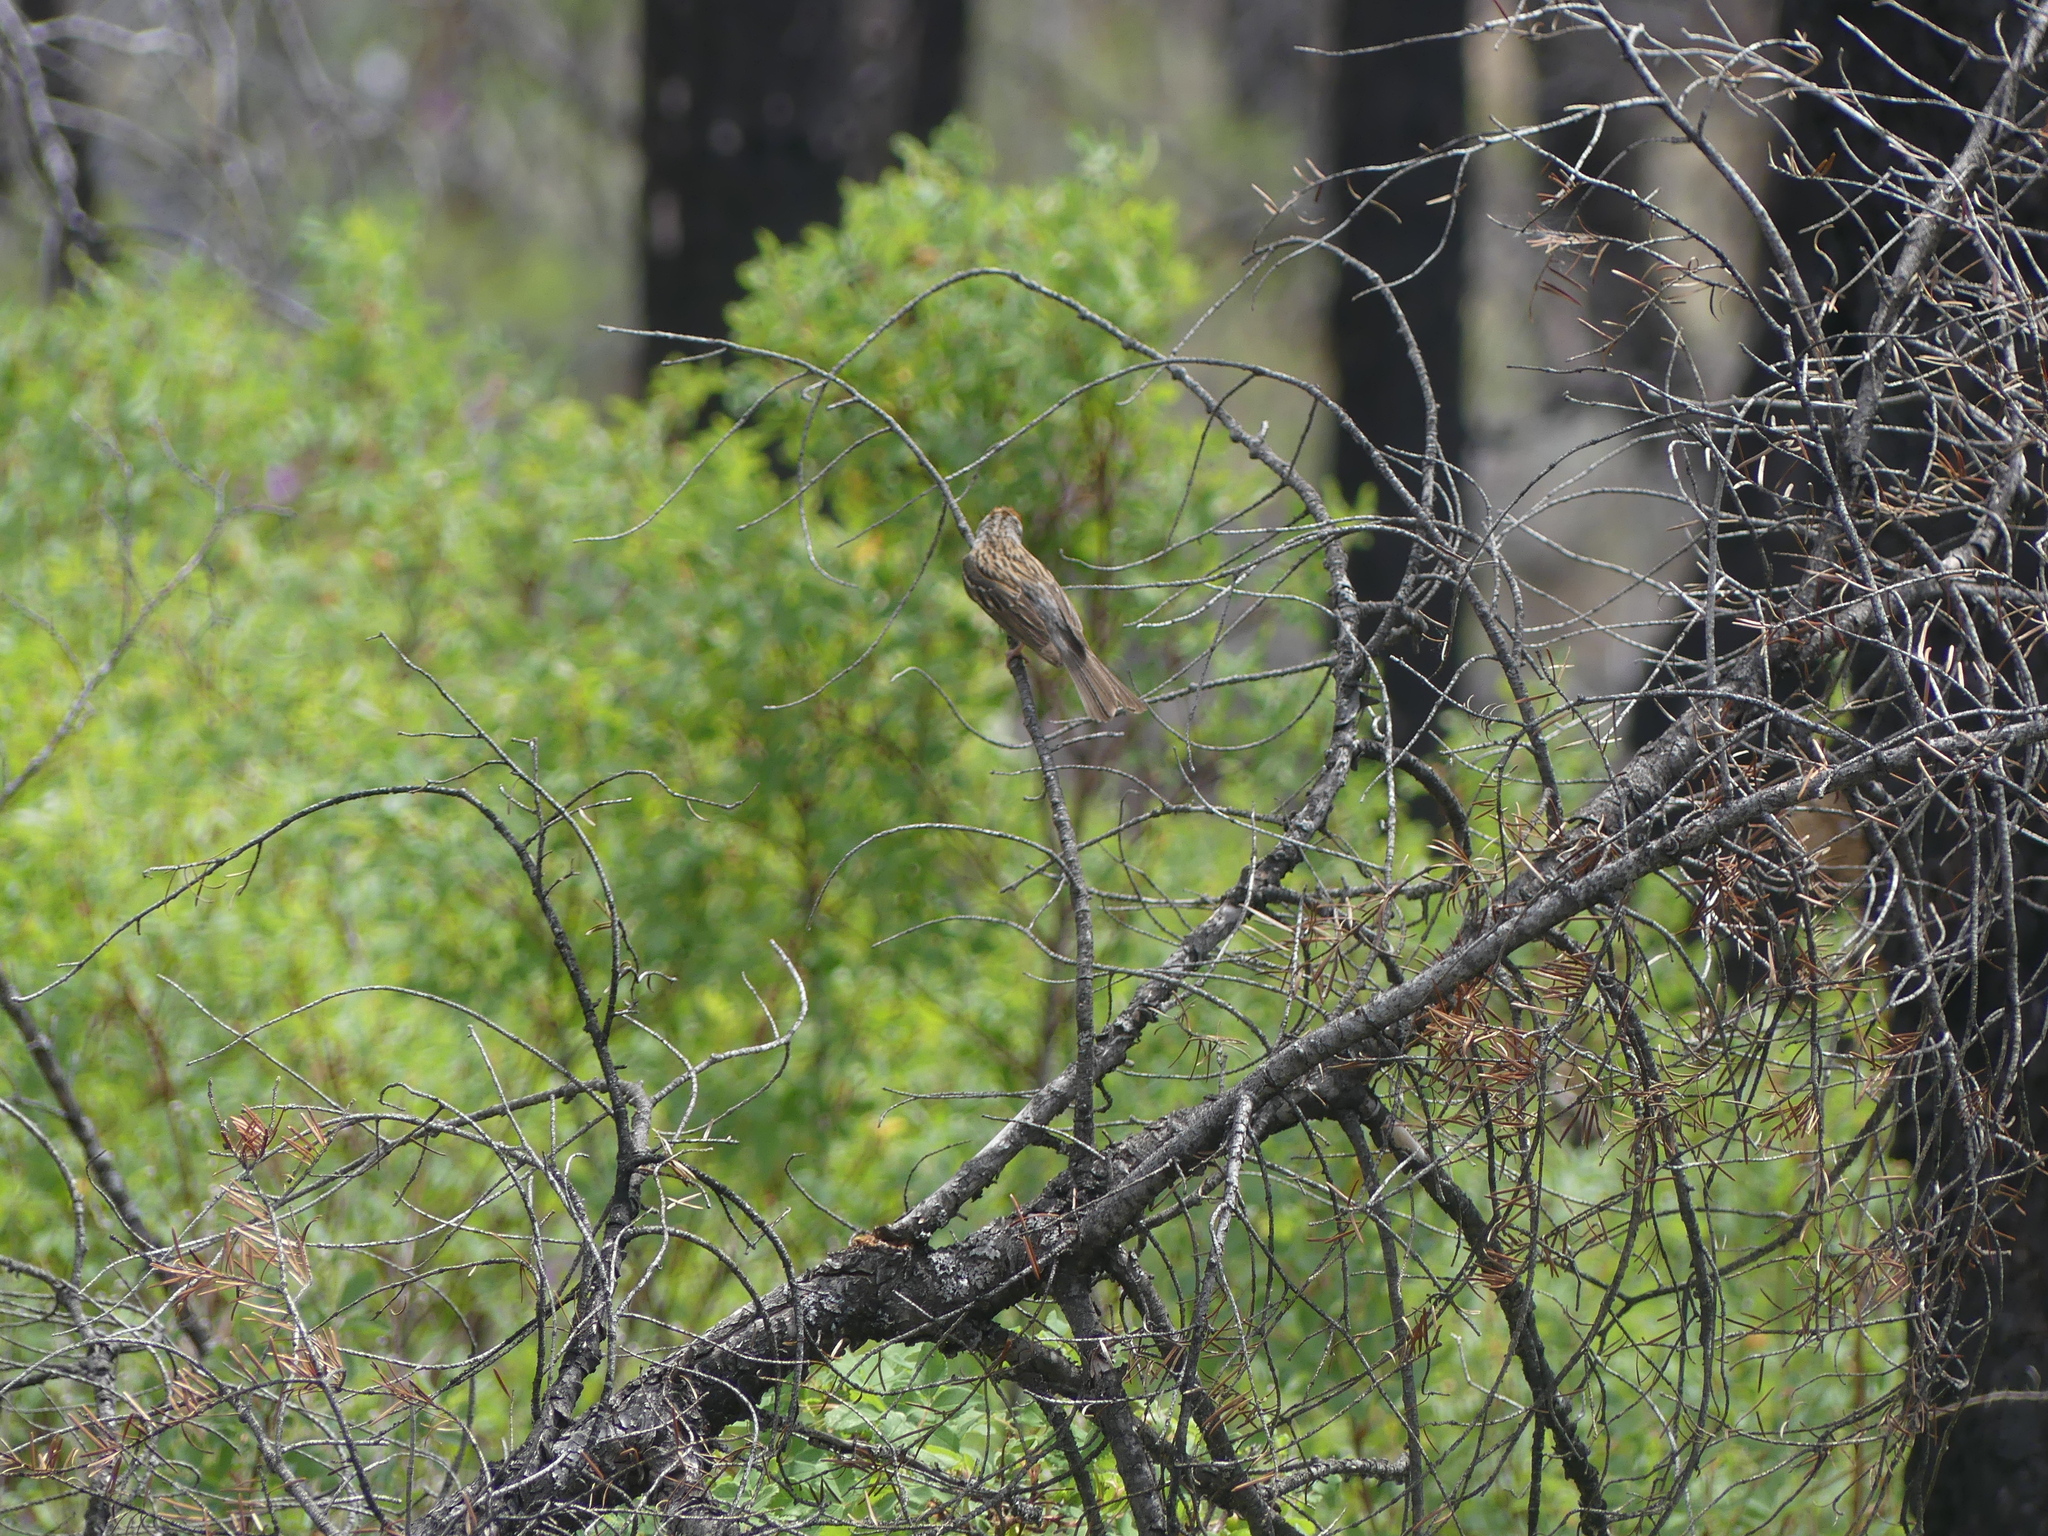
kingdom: Animalia
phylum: Chordata
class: Aves
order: Passeriformes
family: Passerellidae
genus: Spizella
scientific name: Spizella passerina
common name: Chipping sparrow
